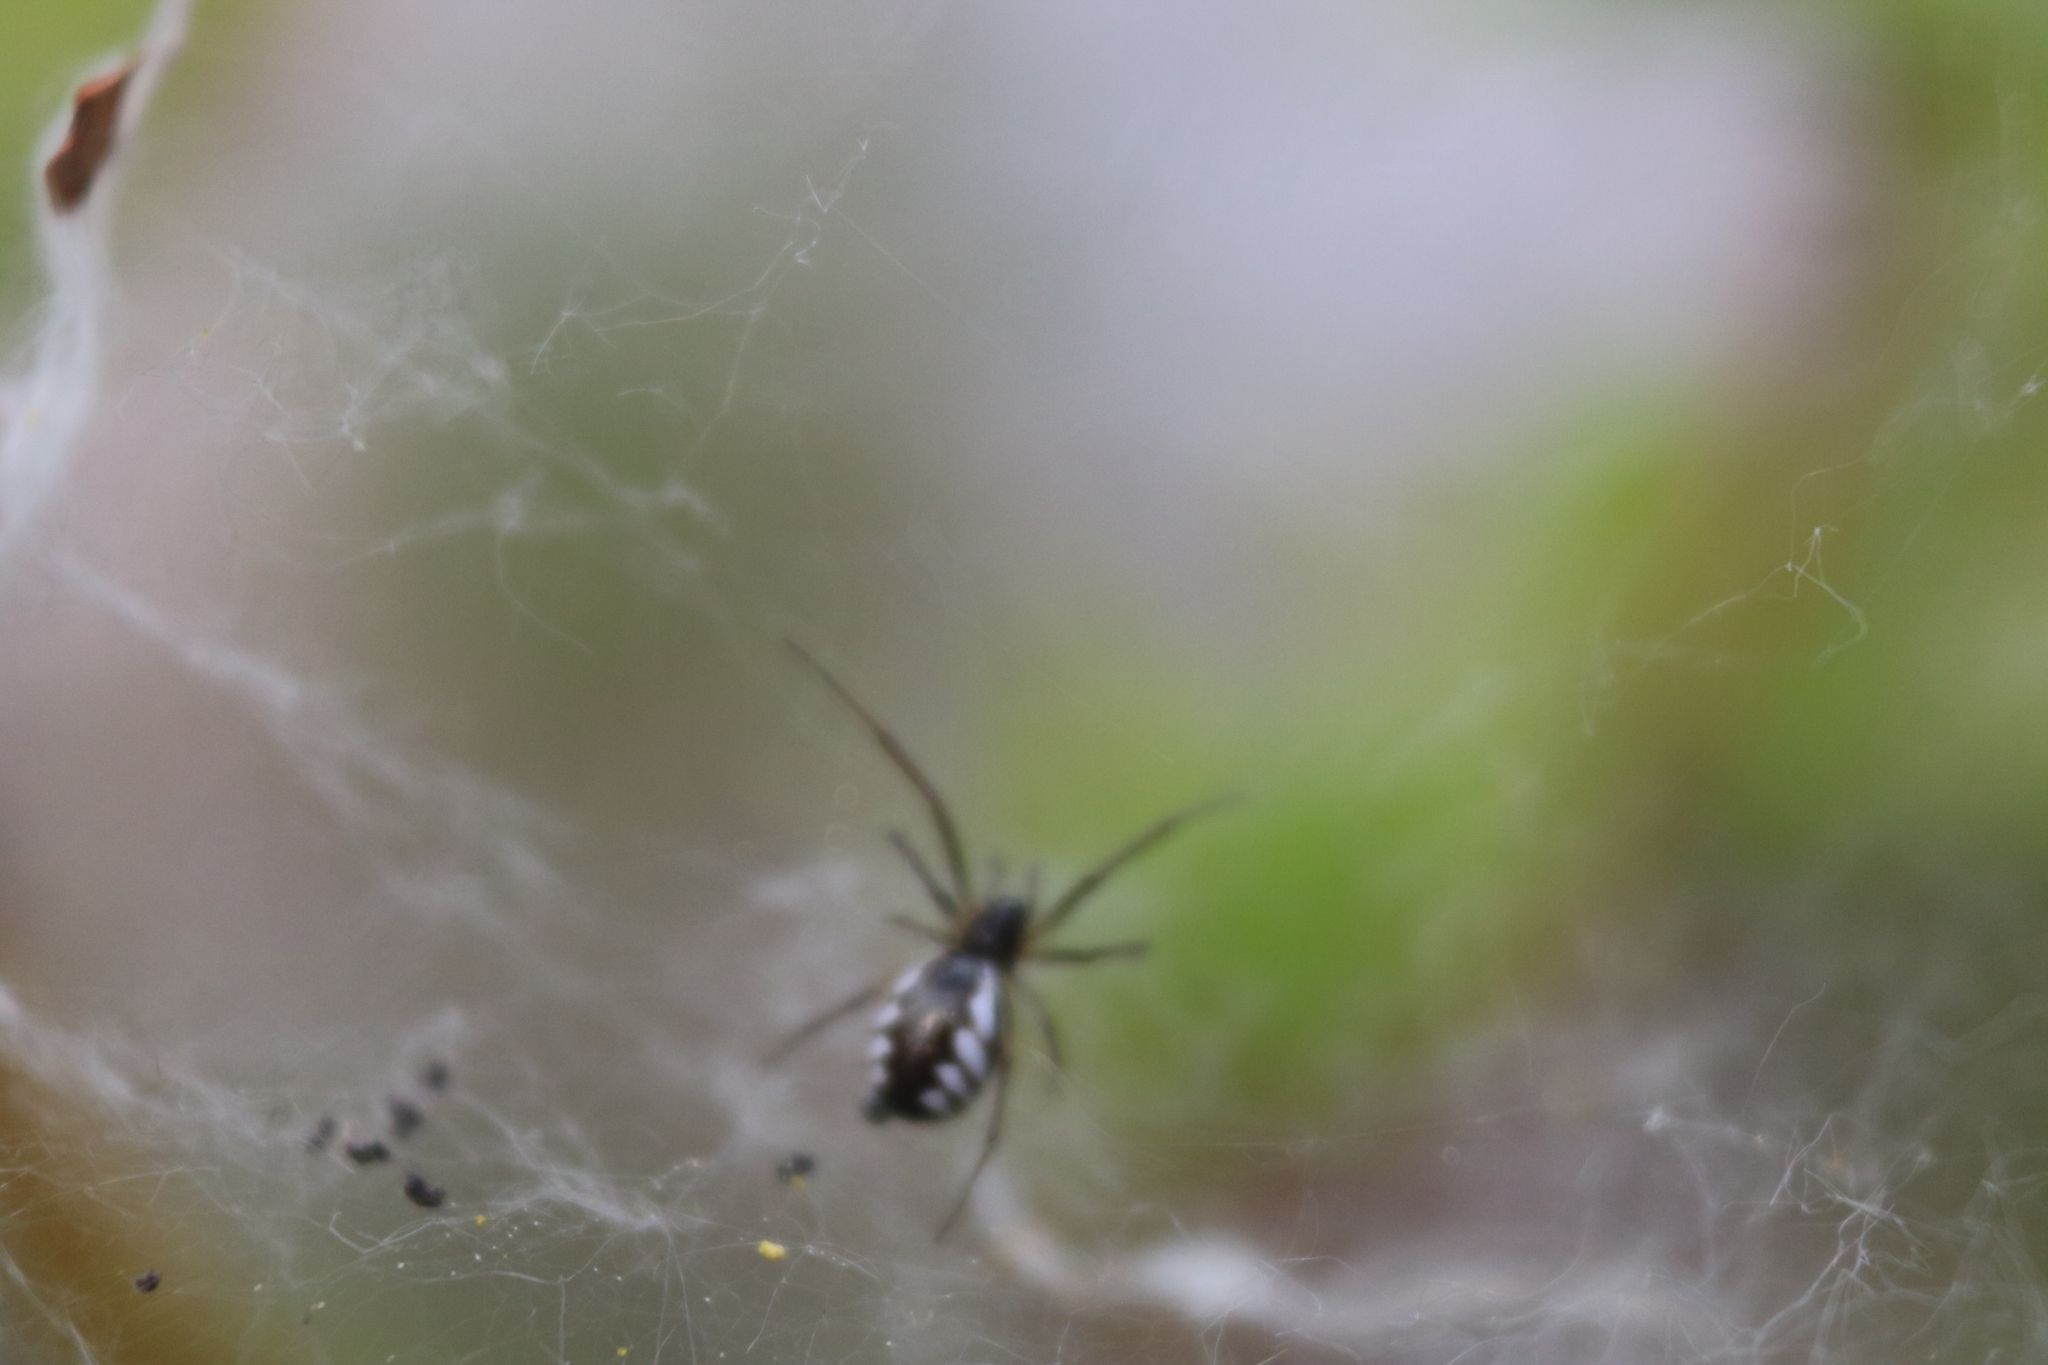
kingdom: Animalia
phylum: Arthropoda
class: Arachnida
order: Araneae
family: Linyphiidae
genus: Frontinella
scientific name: Frontinella pyramitela
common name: Bowl-and-doily spider
